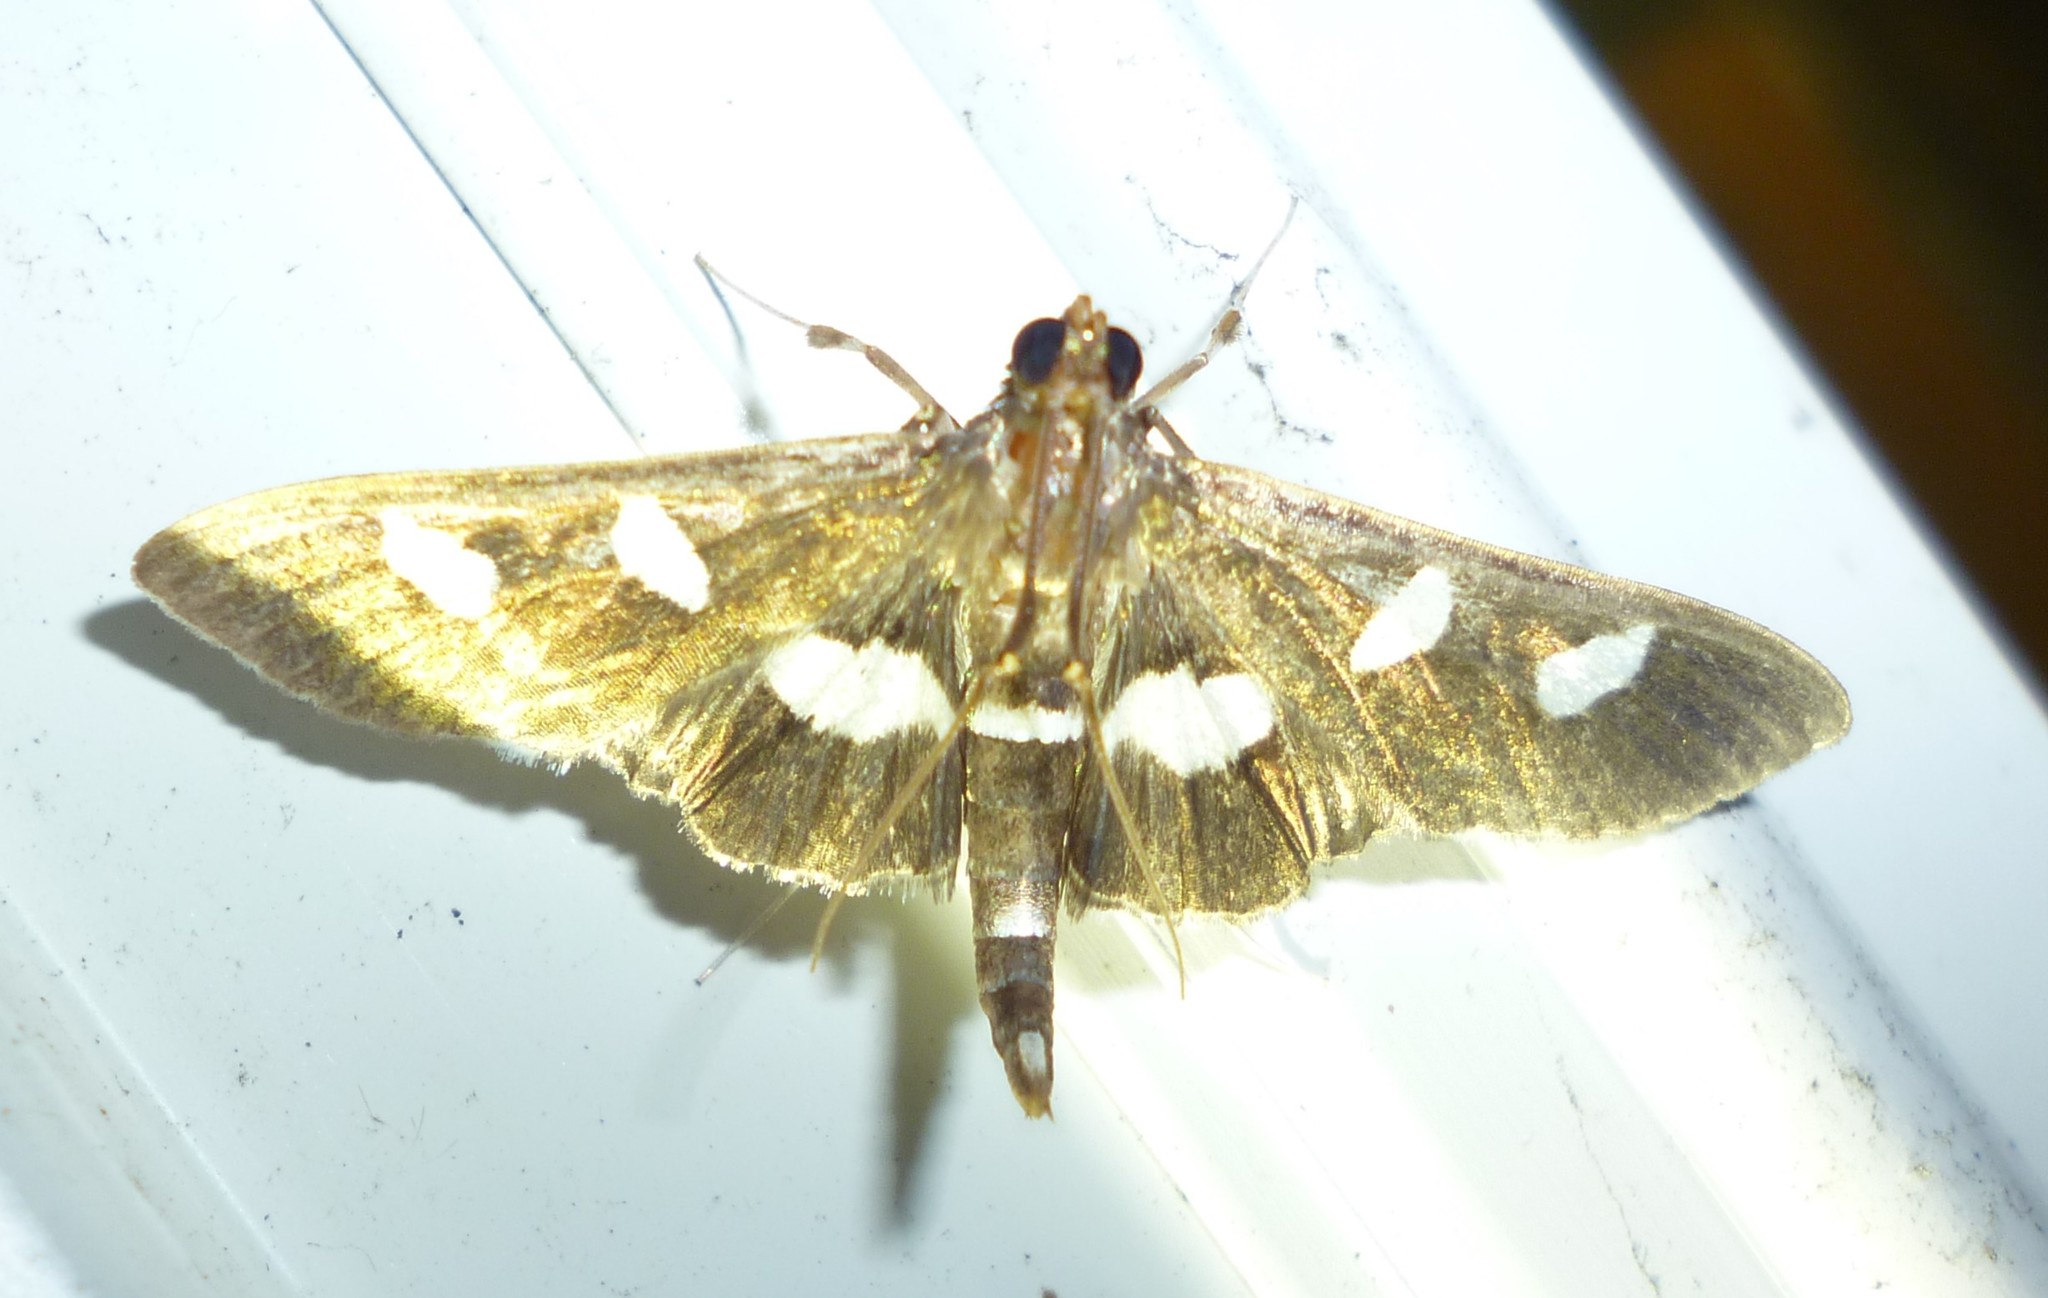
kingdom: Animalia
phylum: Arthropoda
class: Insecta
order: Lepidoptera
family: Crambidae
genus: Desmia
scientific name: Desmia
